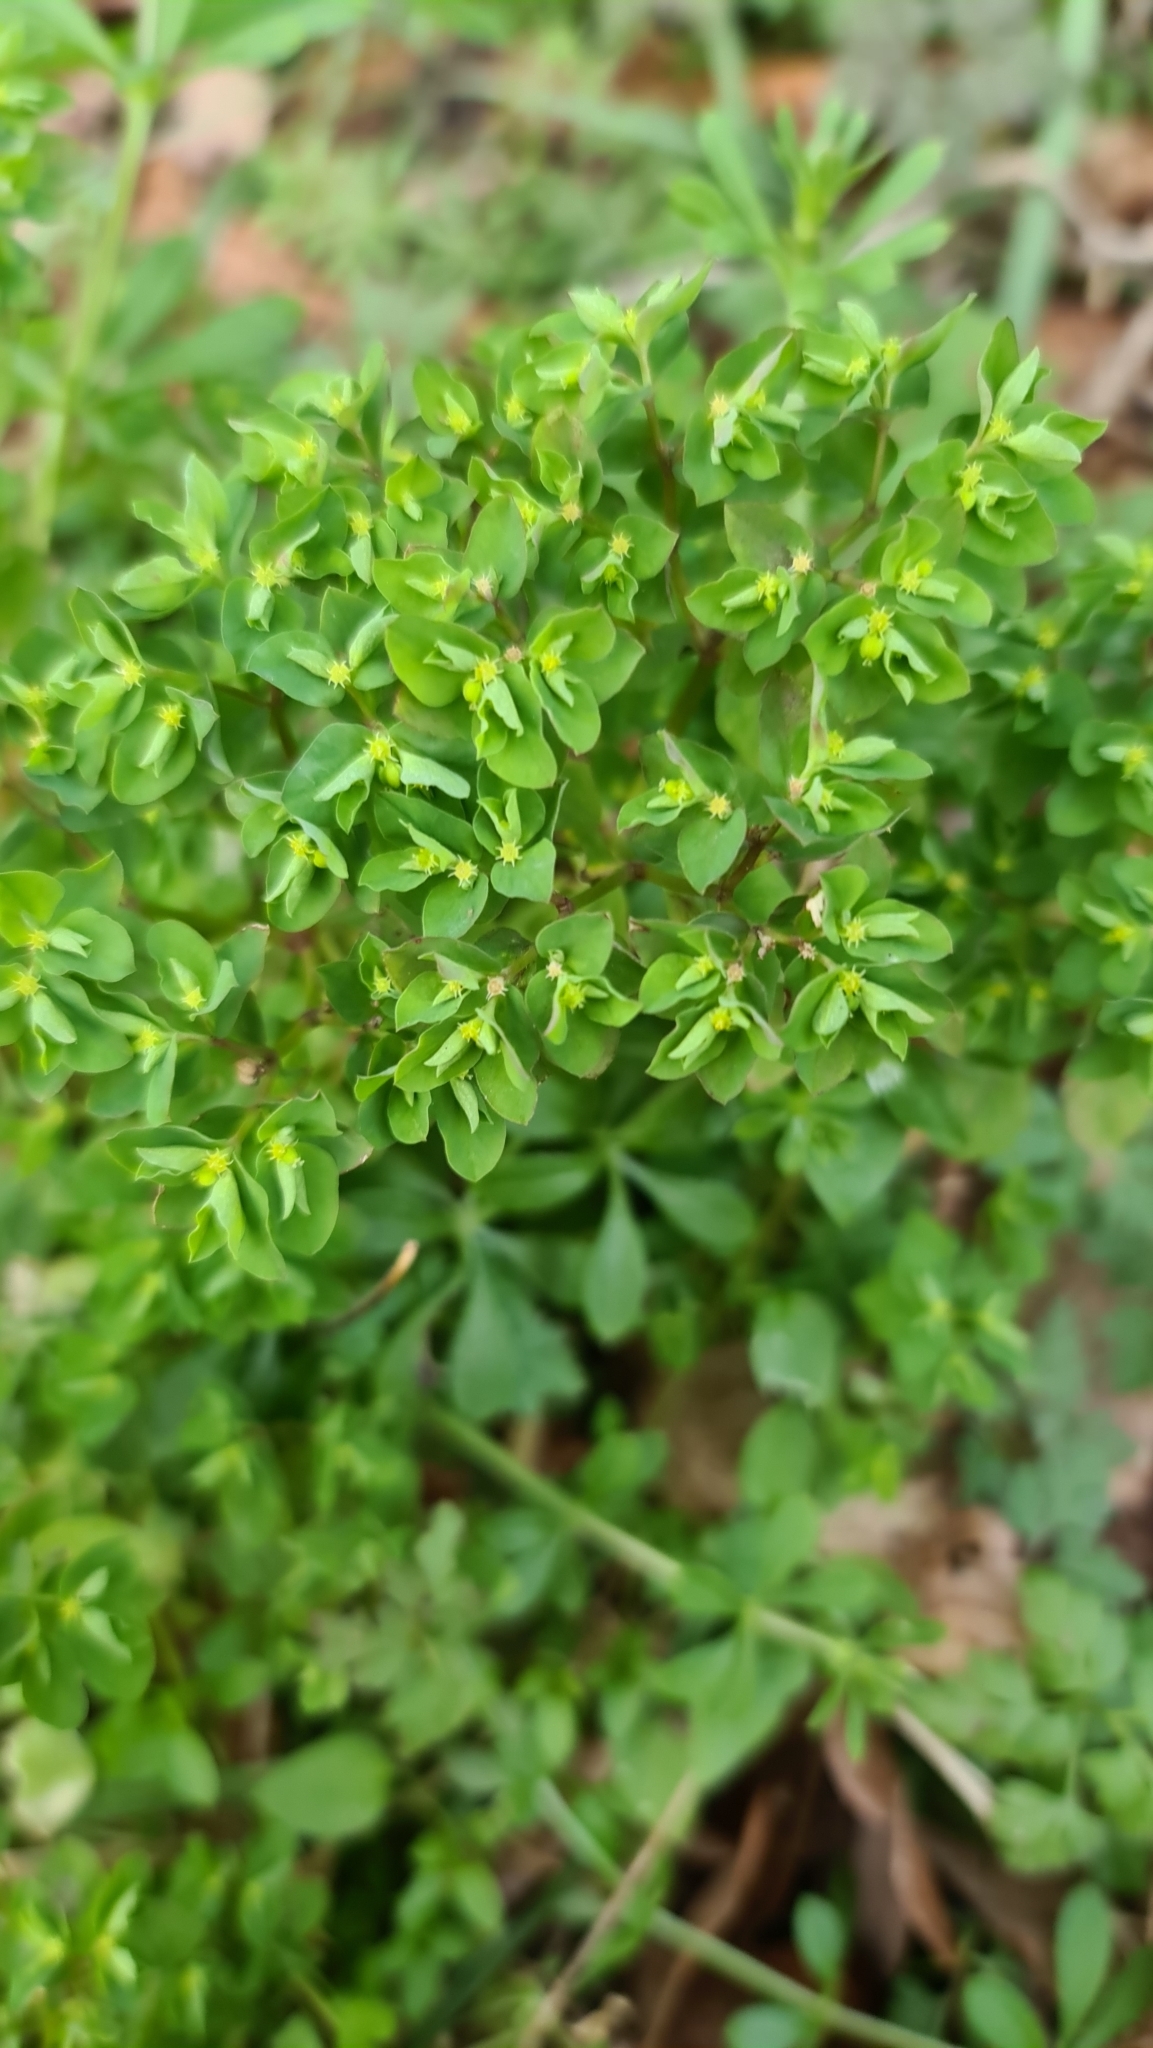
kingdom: Plantae
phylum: Tracheophyta
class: Magnoliopsida
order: Malpighiales
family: Euphorbiaceae
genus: Euphorbia
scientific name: Euphorbia peplus
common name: Petty spurge
